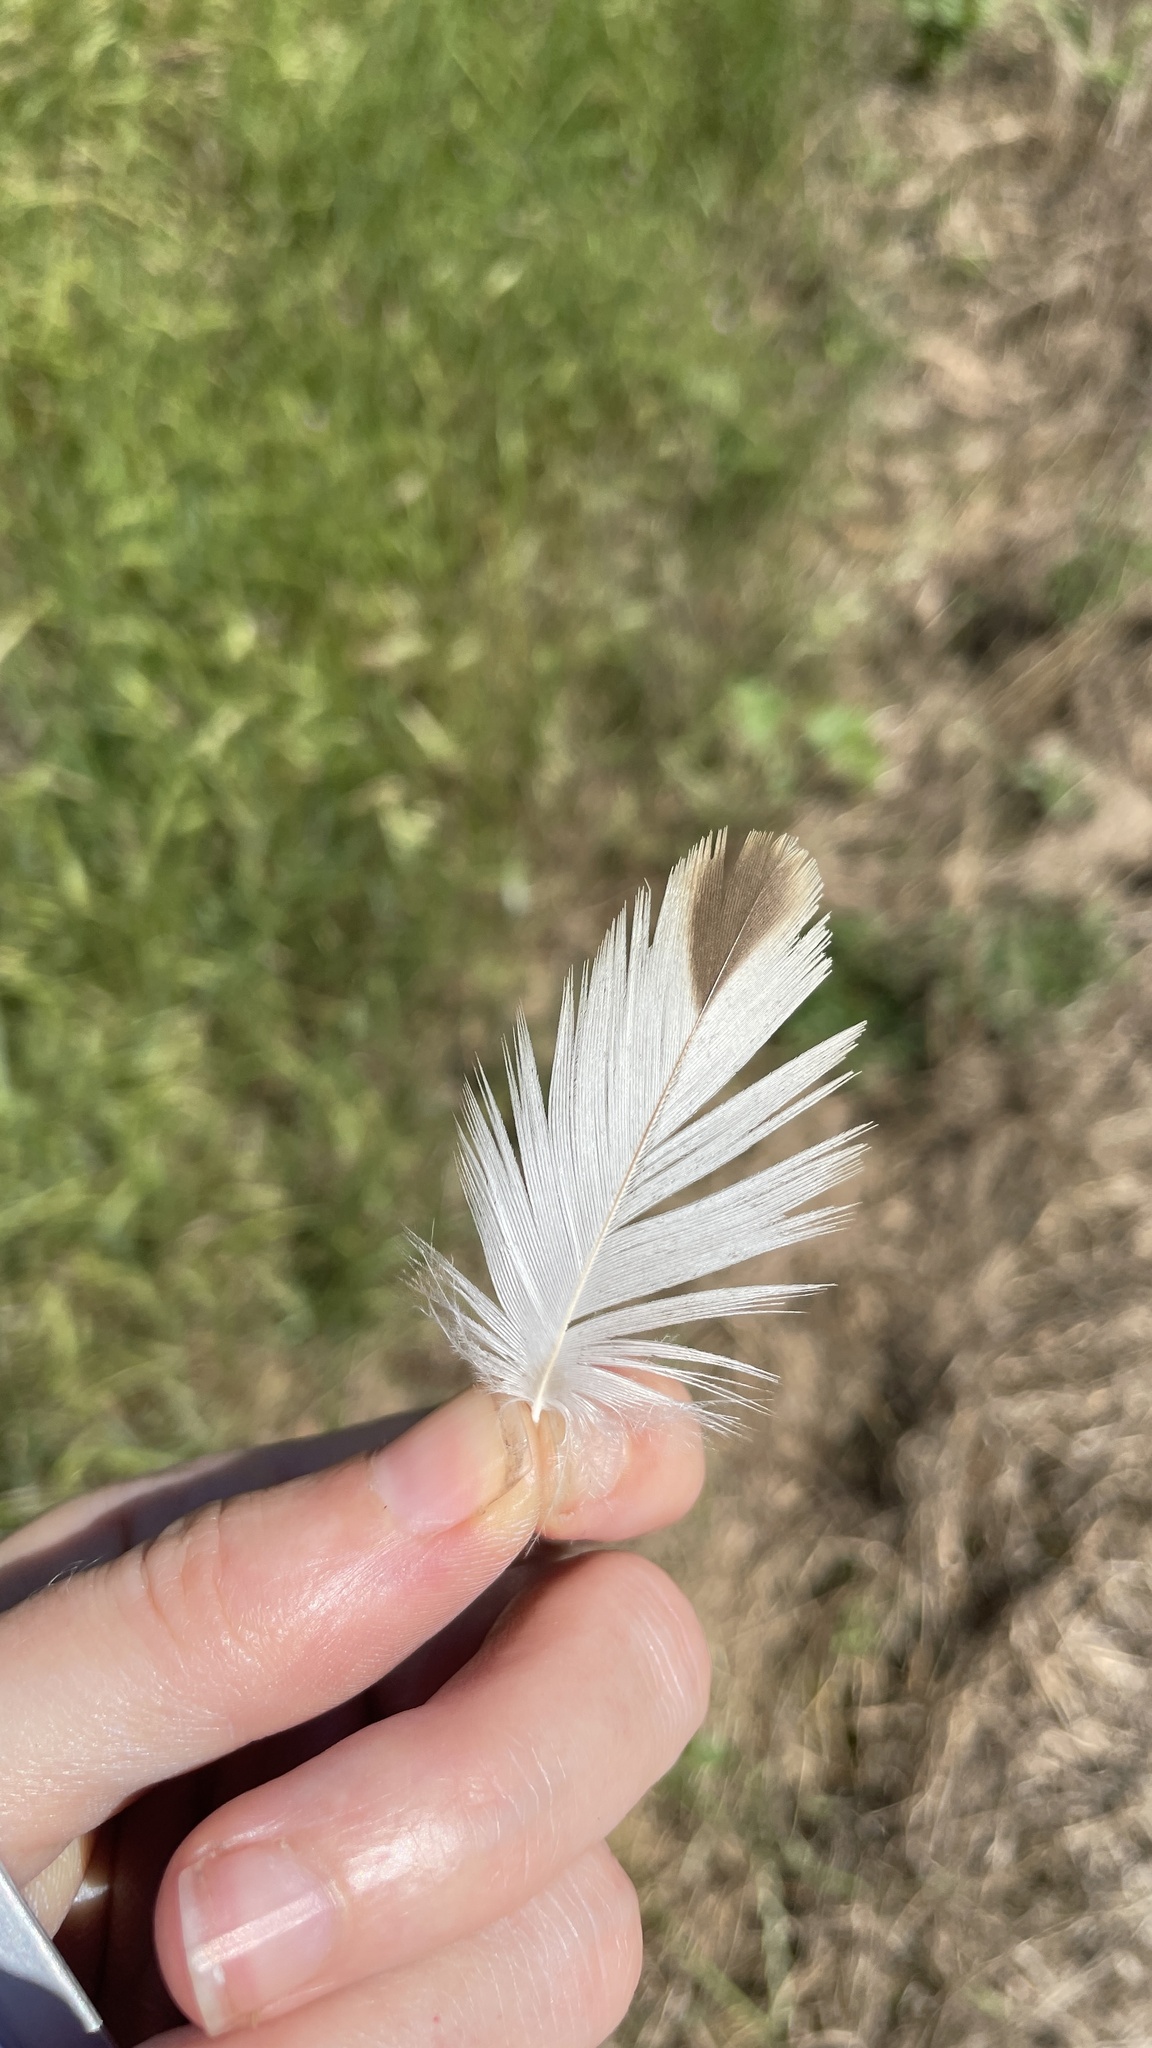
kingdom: Animalia
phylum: Chordata
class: Aves
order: Accipitriformes
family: Pandionidae
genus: Pandion
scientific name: Pandion haliaetus
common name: Osprey
